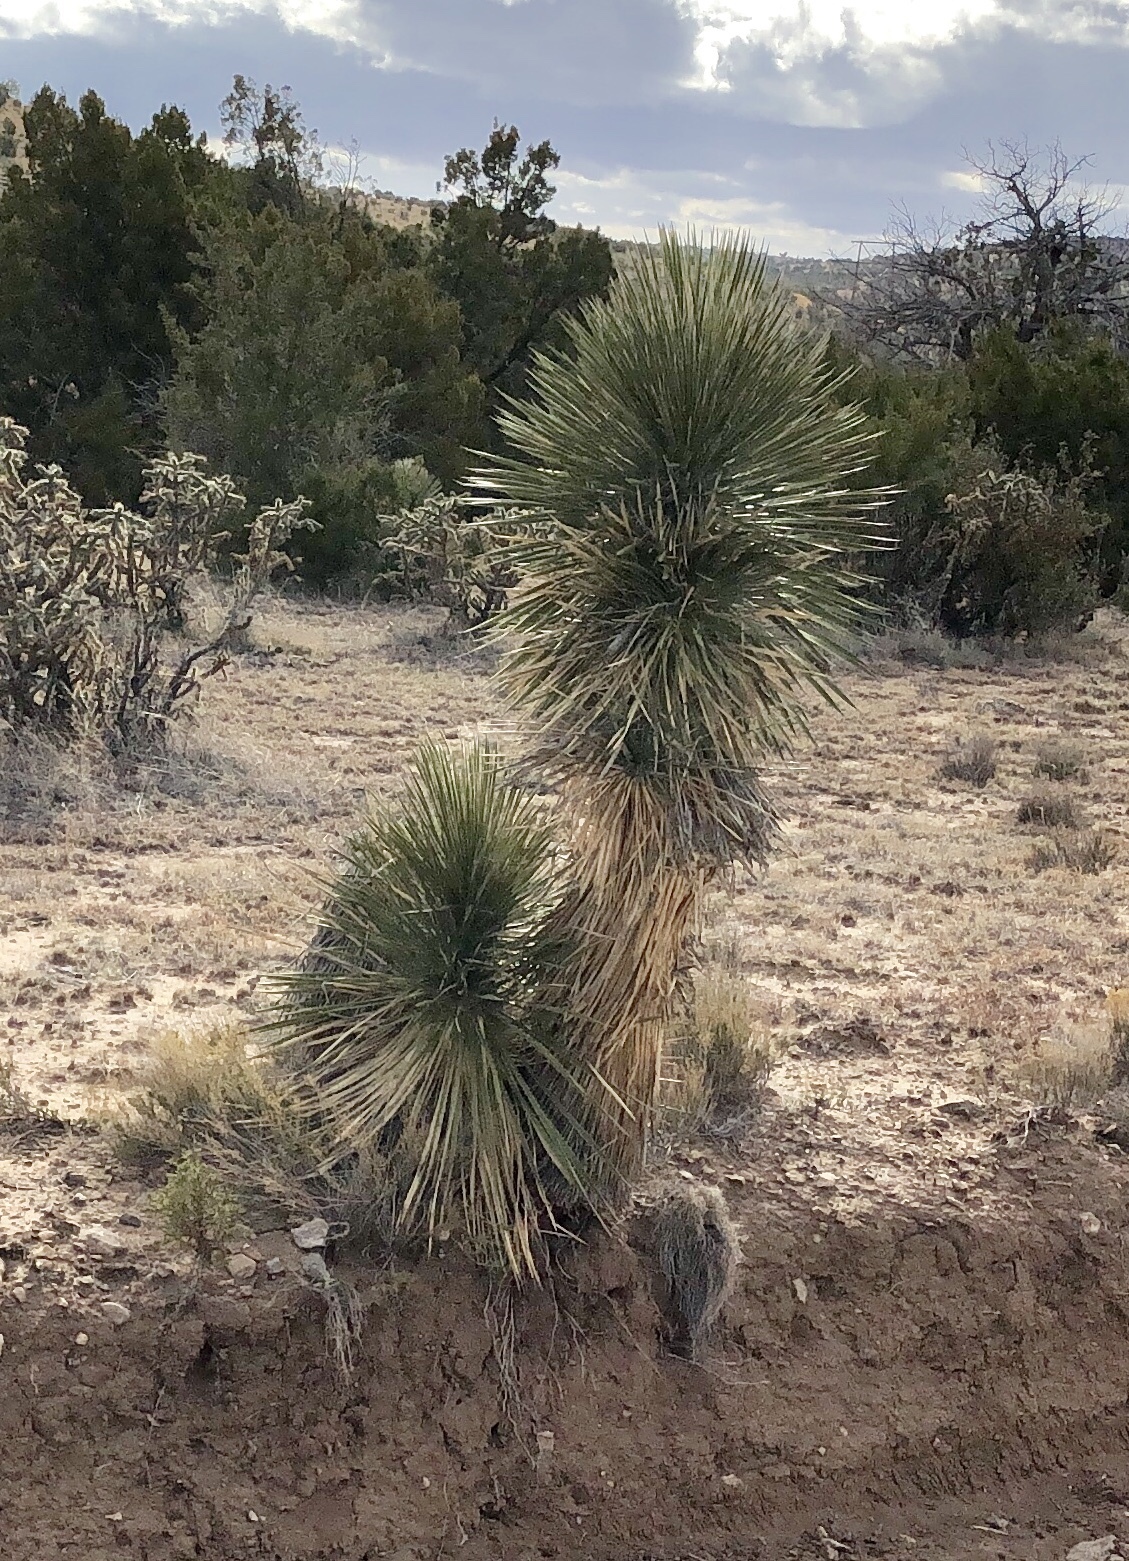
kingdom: Plantae
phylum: Tracheophyta
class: Liliopsida
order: Asparagales
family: Asparagaceae
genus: Yucca
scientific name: Yucca elata
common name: Palmella
